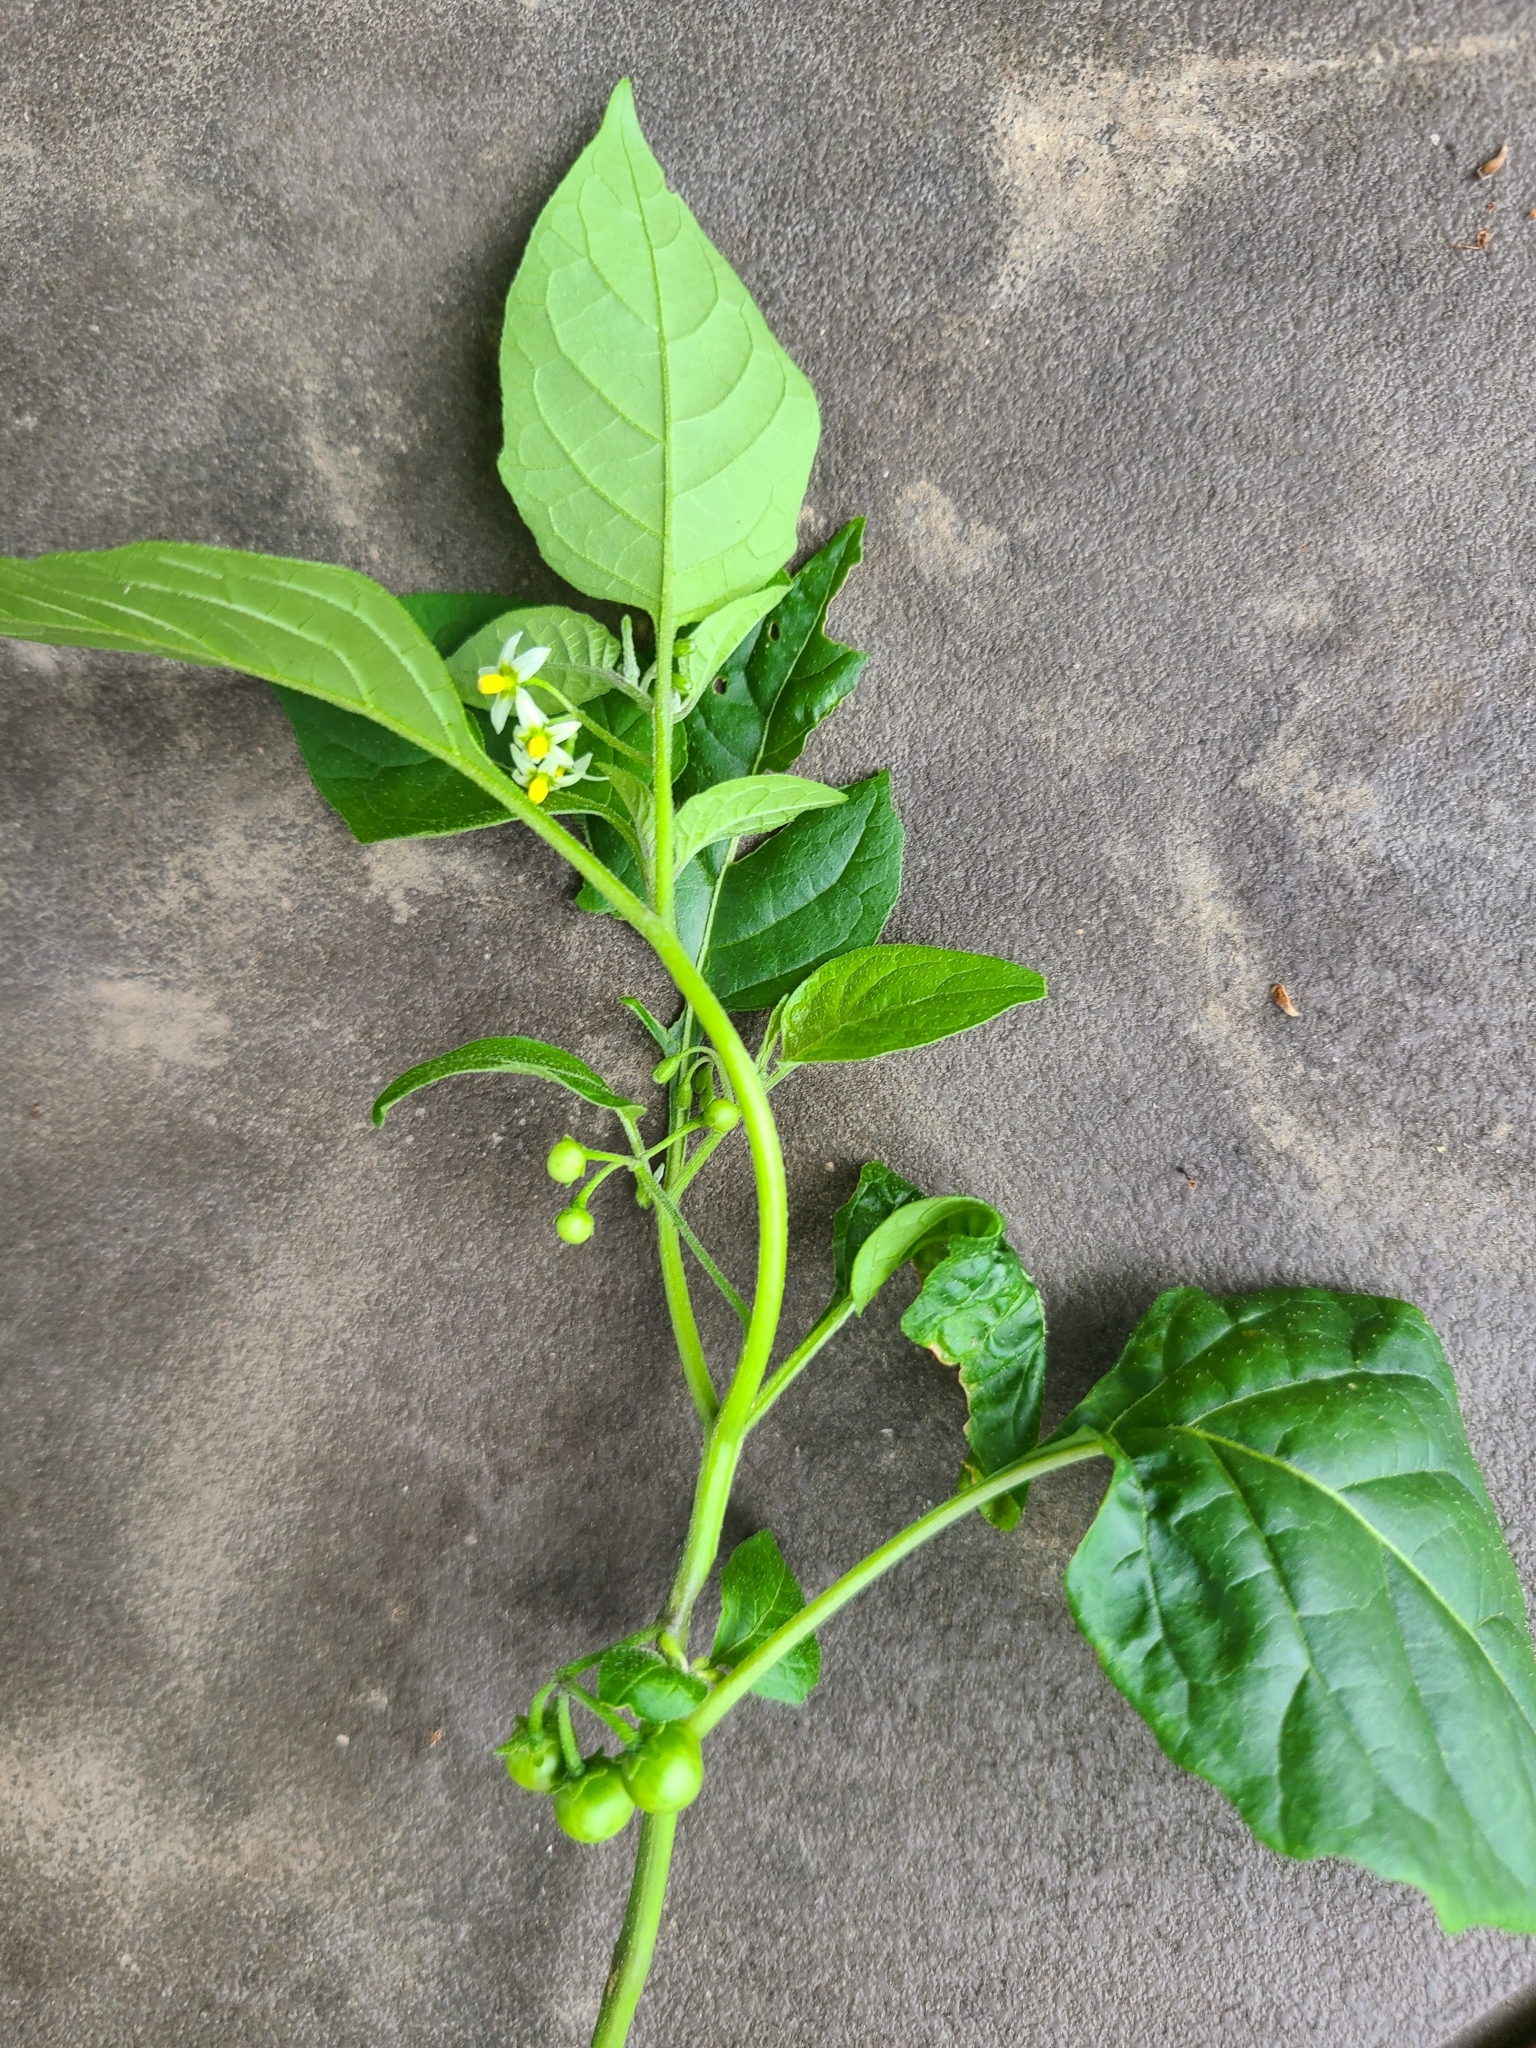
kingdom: Plantae
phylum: Tracheophyta
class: Magnoliopsida
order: Solanales
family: Solanaceae
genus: Solanum
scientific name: Solanum emulans
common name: Eastern black nightshade
